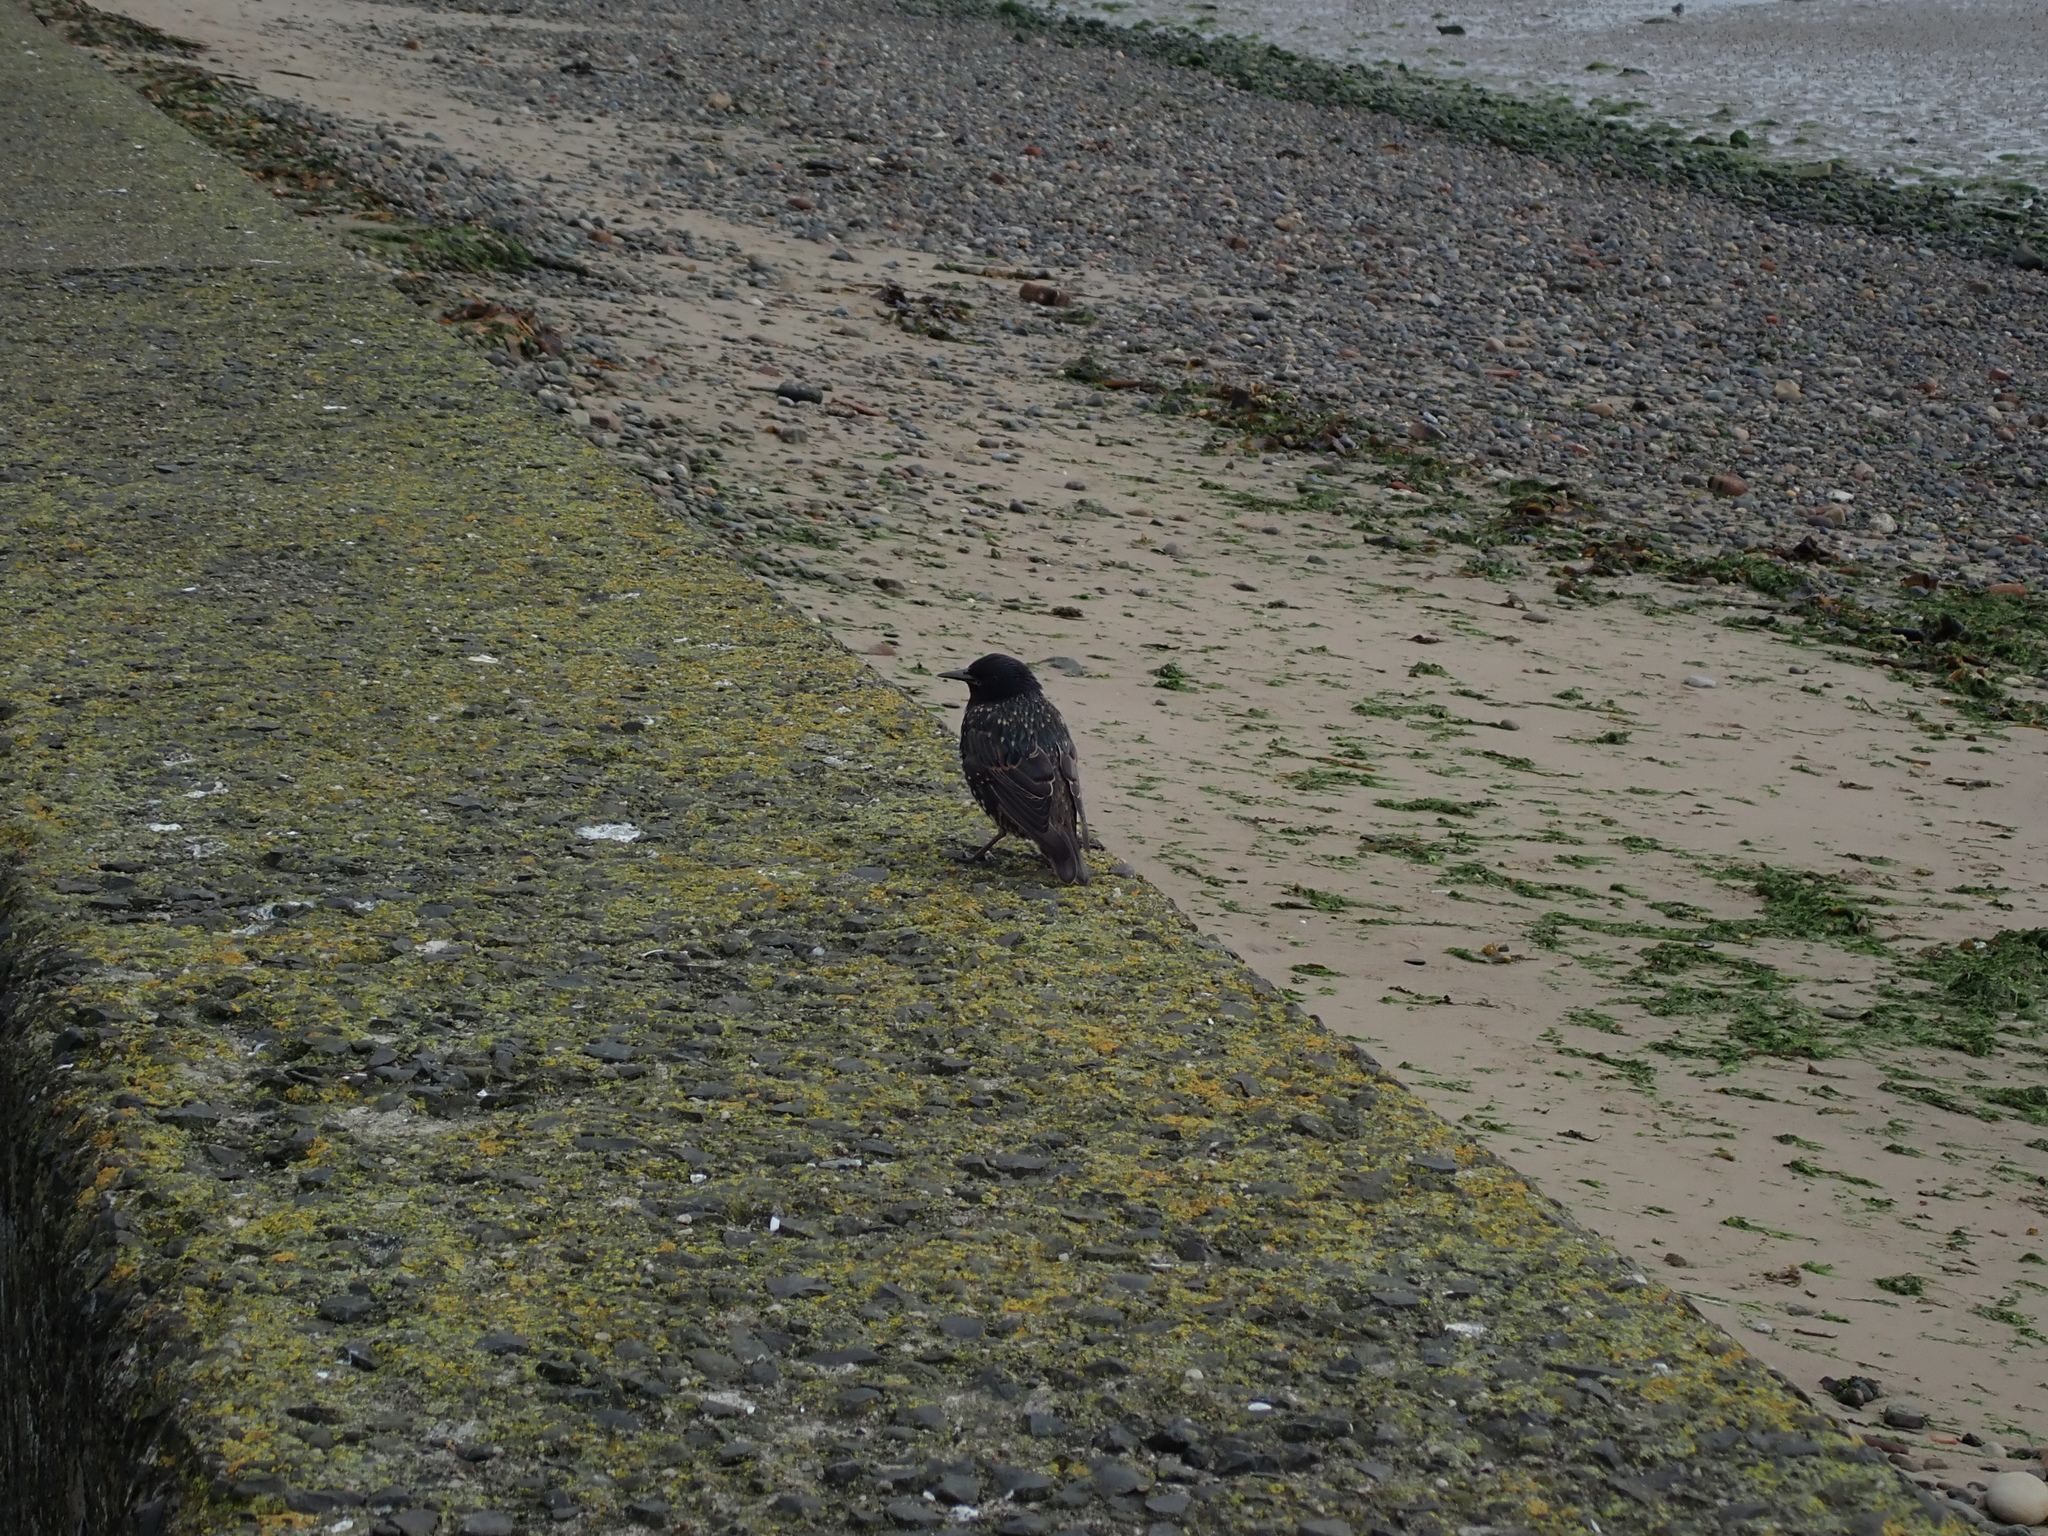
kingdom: Animalia
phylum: Chordata
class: Aves
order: Passeriformes
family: Sturnidae
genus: Sturnus
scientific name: Sturnus vulgaris
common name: Common starling
